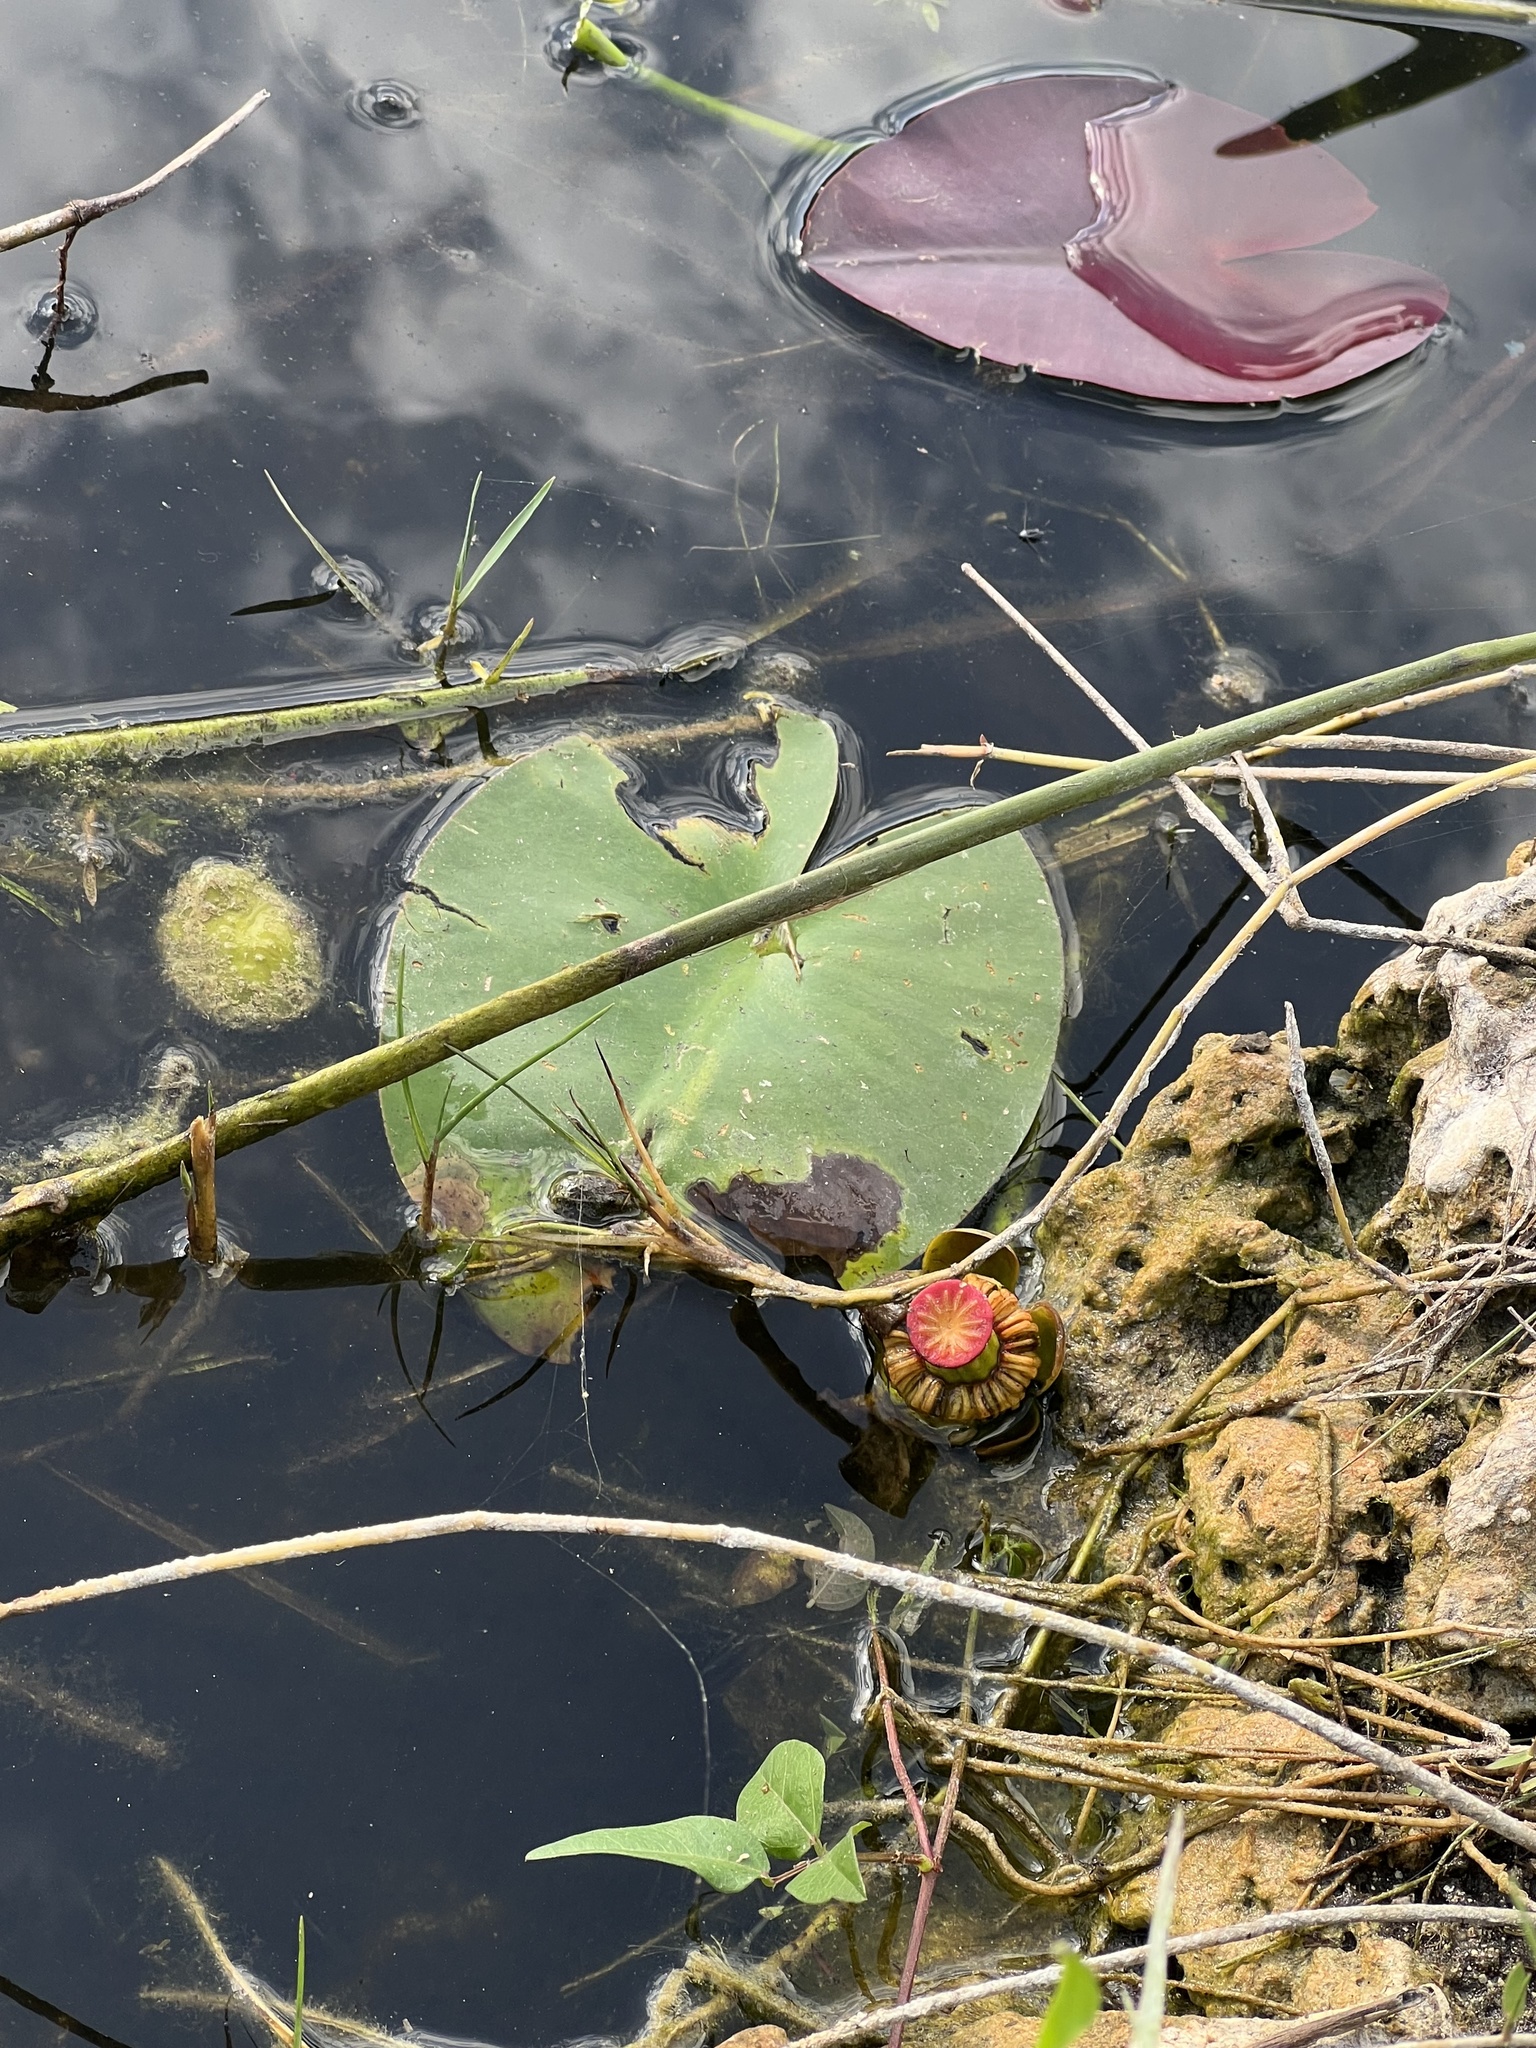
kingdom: Plantae
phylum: Tracheophyta
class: Magnoliopsida
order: Nymphaeales
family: Nymphaeaceae
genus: Nuphar
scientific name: Nuphar advena
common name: Spatter-dock
